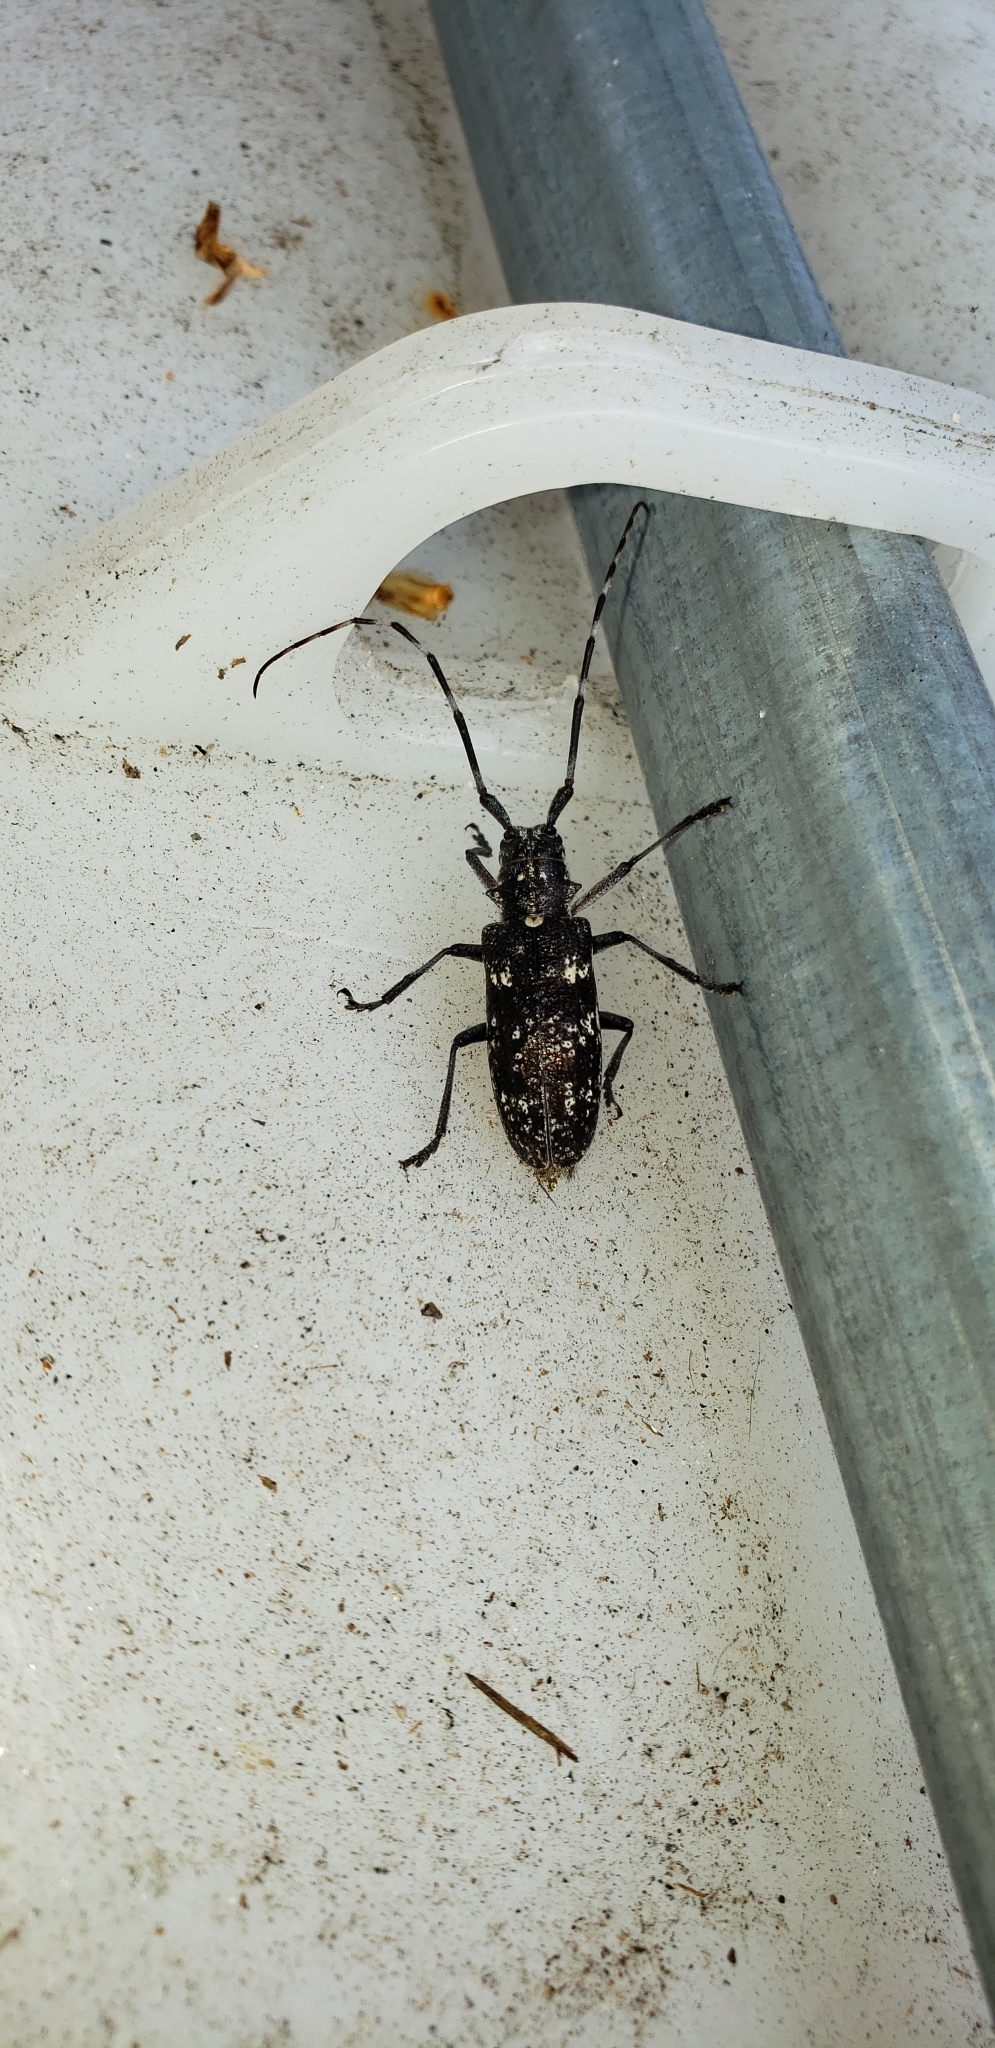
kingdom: Animalia
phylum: Arthropoda
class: Insecta
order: Coleoptera
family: Cerambycidae
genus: Monochamus
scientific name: Monochamus scutellatus
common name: White-spotted sawyer beetle
